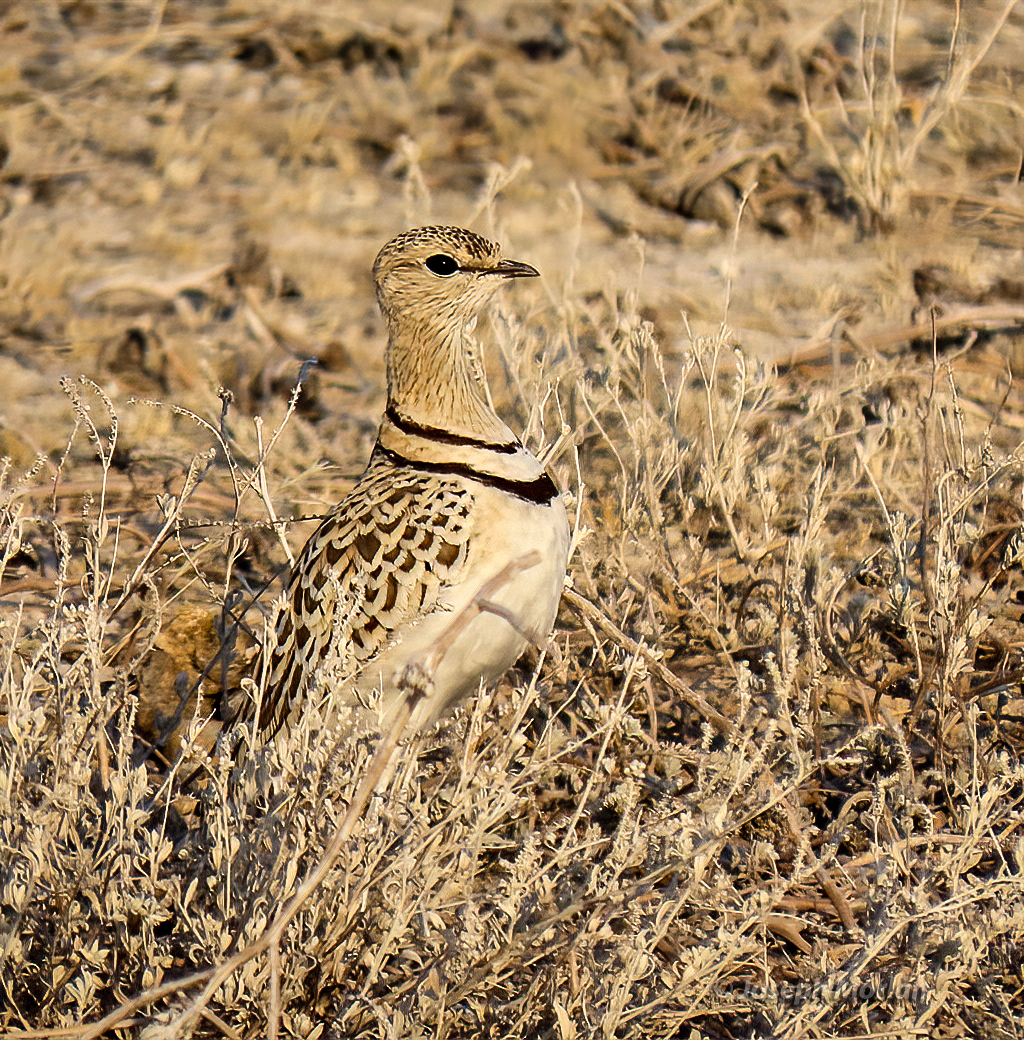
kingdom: Animalia
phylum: Chordata
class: Aves
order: Charadriiformes
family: Glareolidae
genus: Rhinoptilus
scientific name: Rhinoptilus africanus
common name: Double-banded courser
